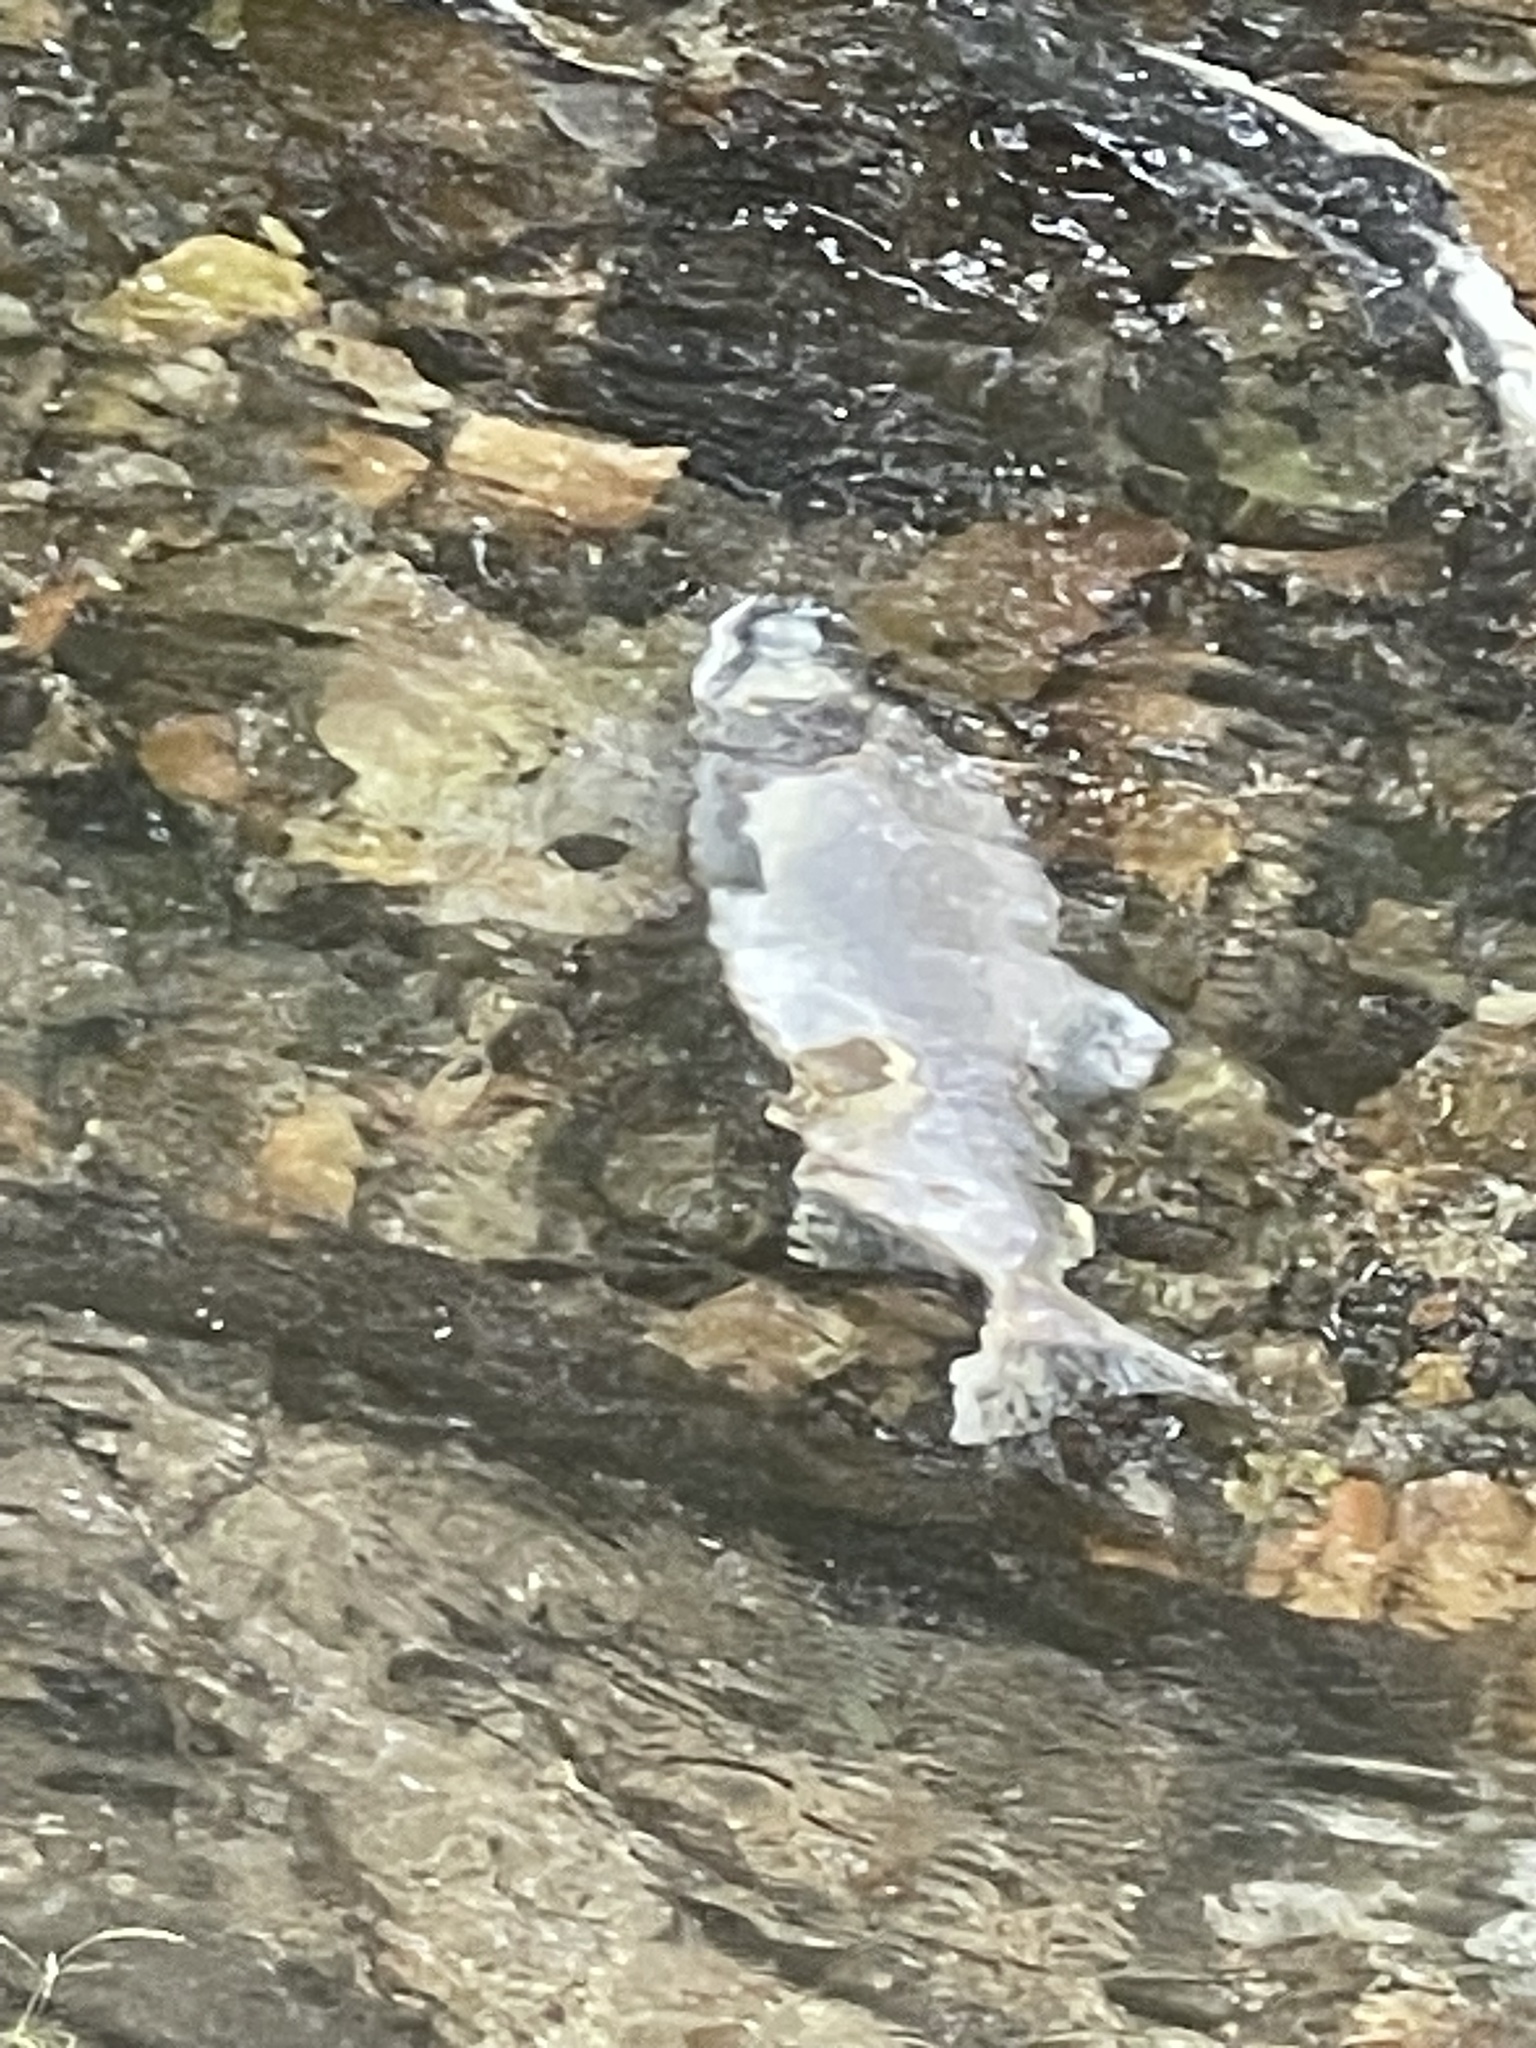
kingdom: Animalia
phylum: Chordata
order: Salmoniformes
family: Salmonidae
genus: Oncorhynchus
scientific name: Oncorhynchus gorbuscha
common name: Humpback salmon
